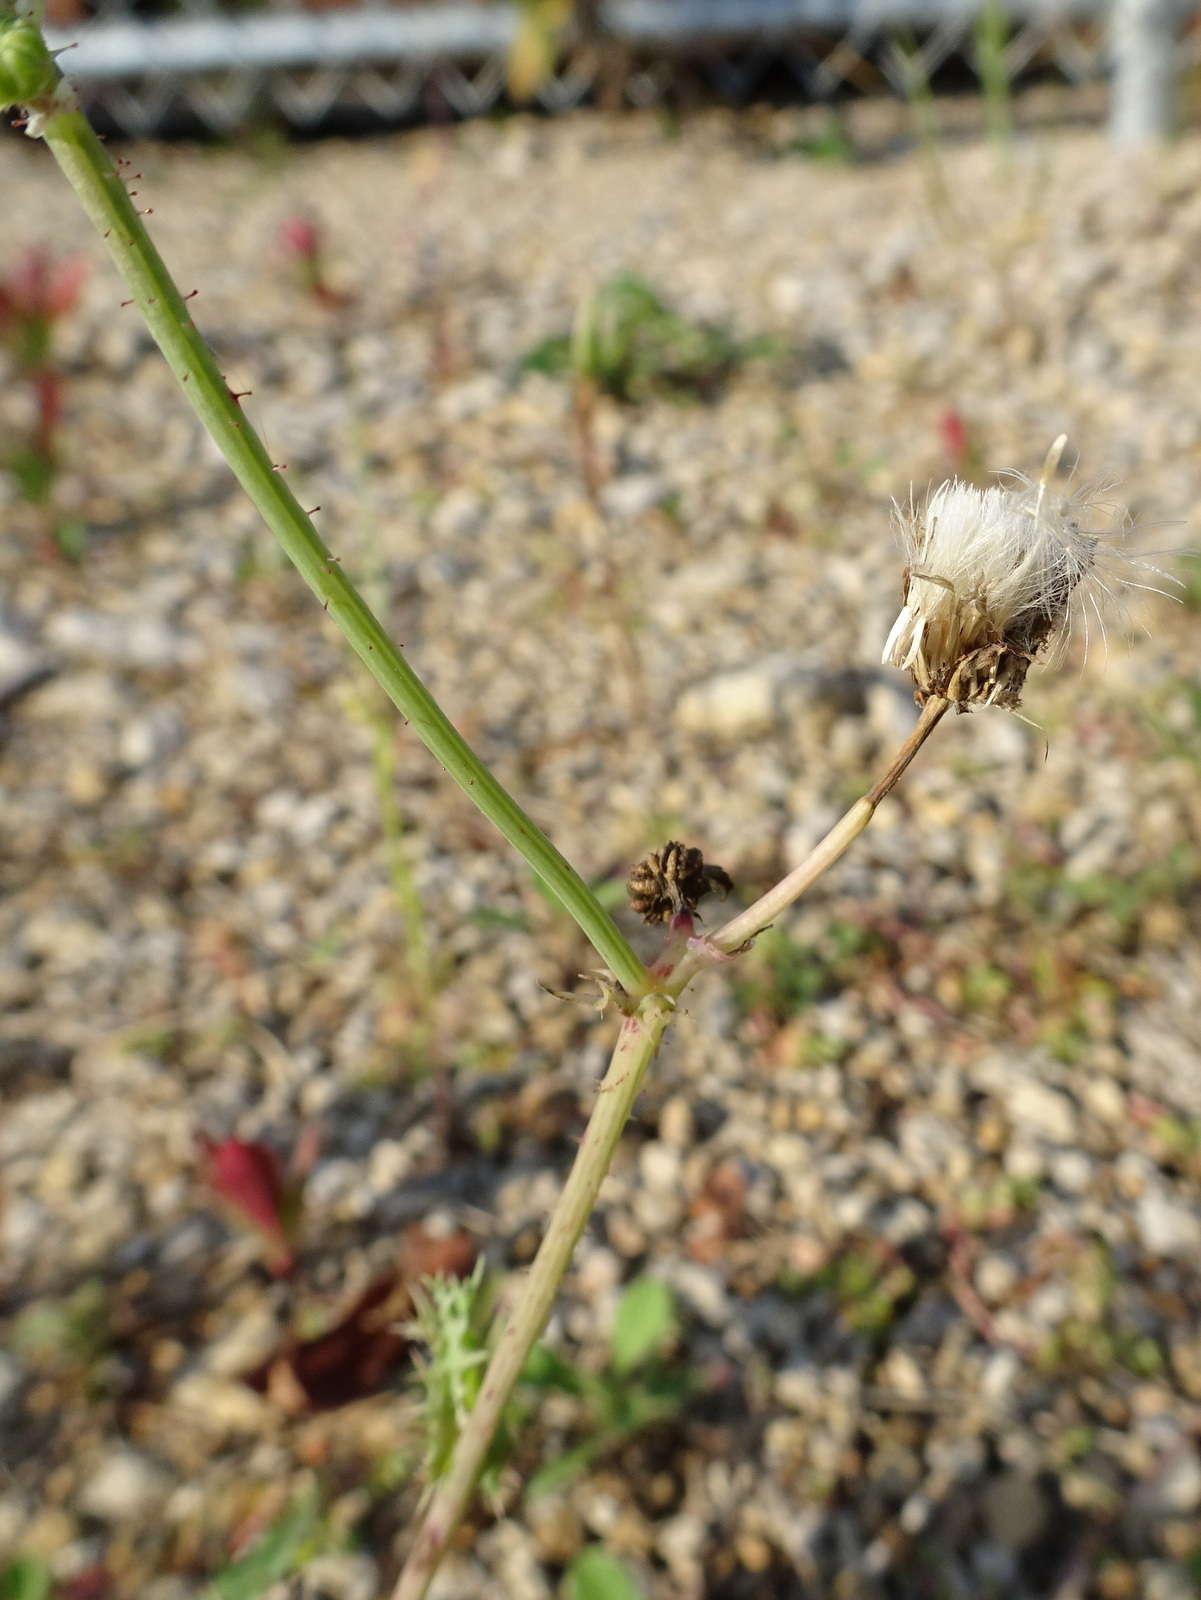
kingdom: Plantae
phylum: Tracheophyta
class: Magnoliopsida
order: Asterales
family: Asteraceae
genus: Sonchus
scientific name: Sonchus asper
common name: Prickly sow-thistle
